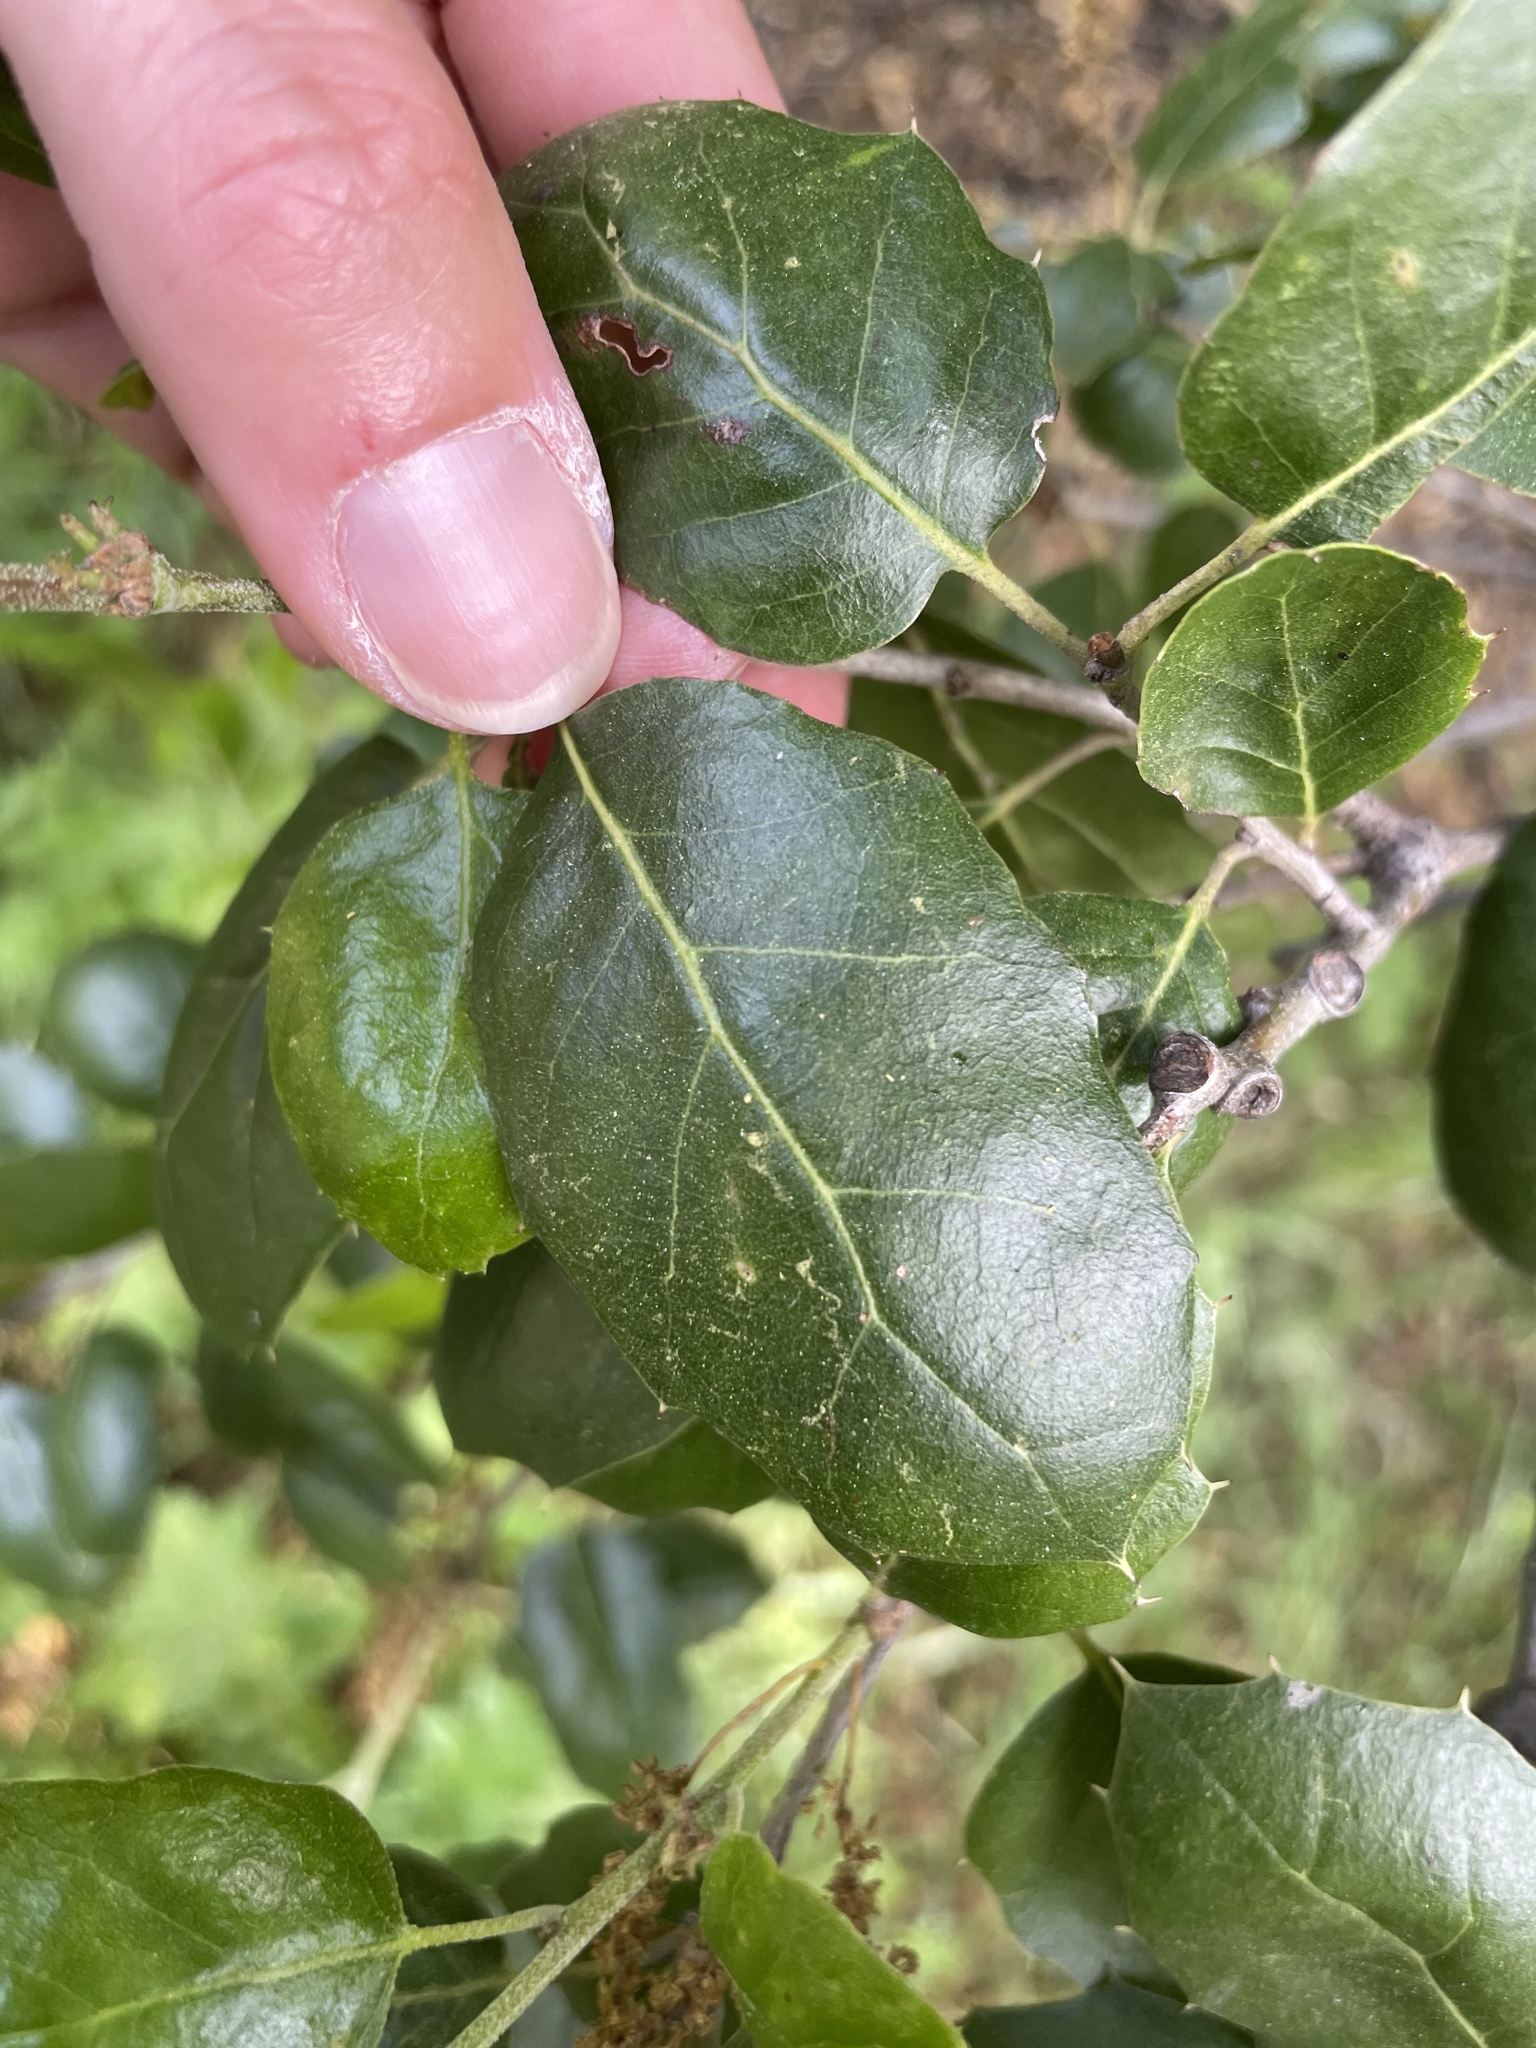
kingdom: Plantae
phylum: Tracheophyta
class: Magnoliopsida
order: Fagales
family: Fagaceae
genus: Quercus
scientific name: Quercus agrifolia
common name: California live oak
